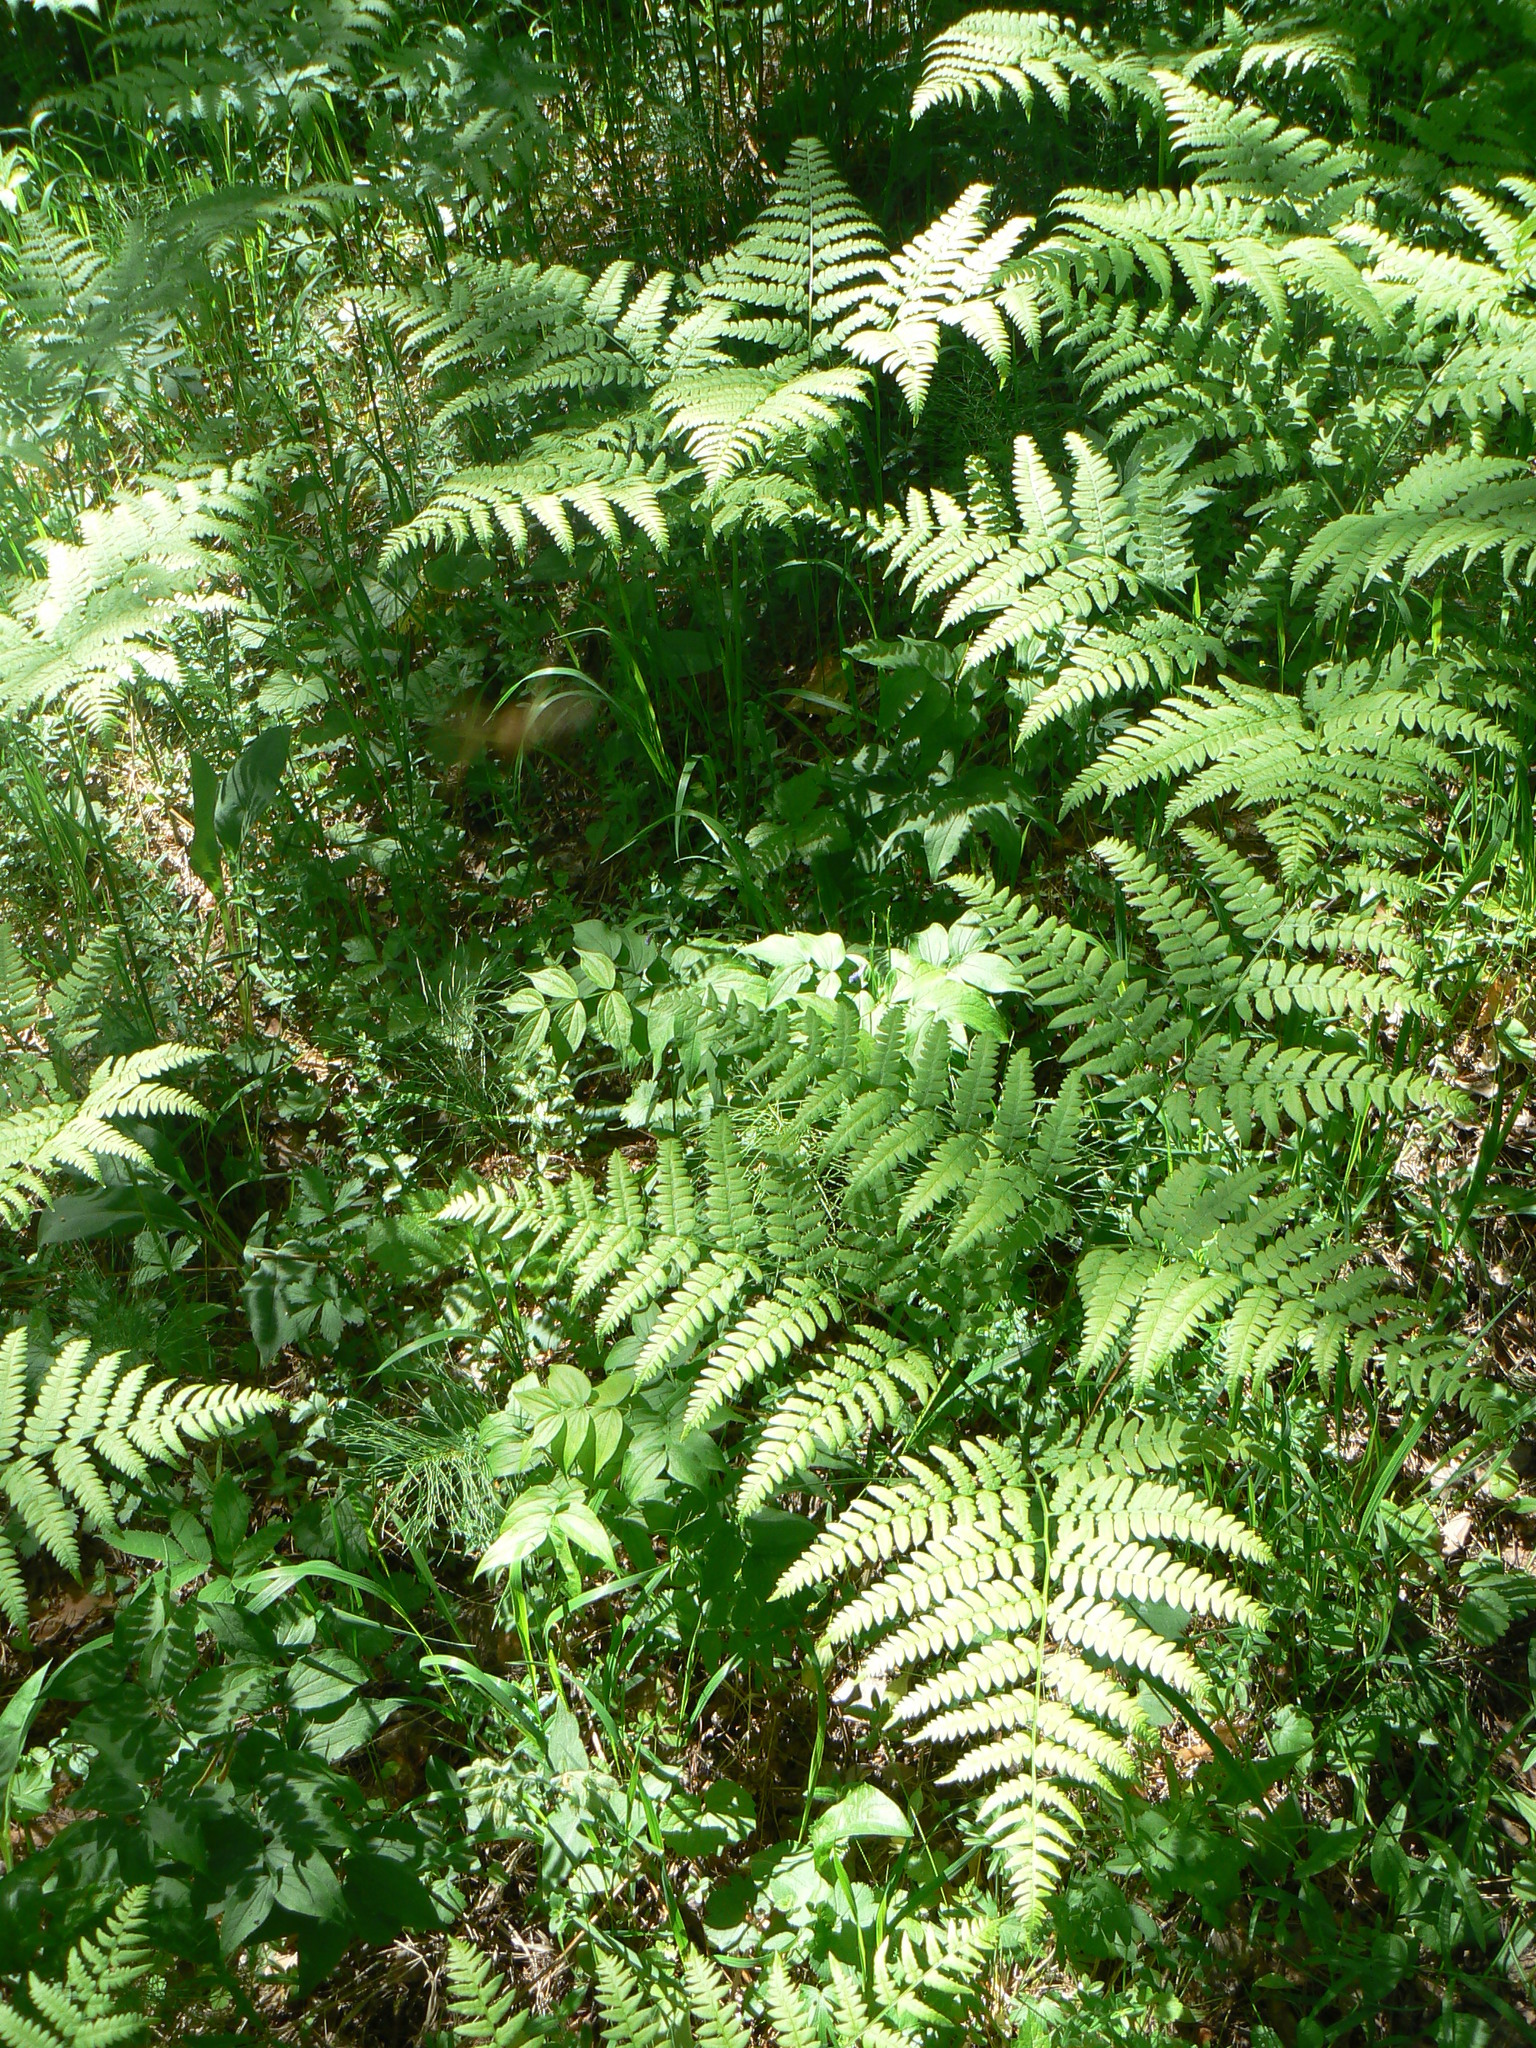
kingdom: Plantae
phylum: Tracheophyta
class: Polypodiopsida
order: Polypodiales
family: Dennstaedtiaceae
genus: Pteridium
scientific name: Pteridium aquilinum
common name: Bracken
